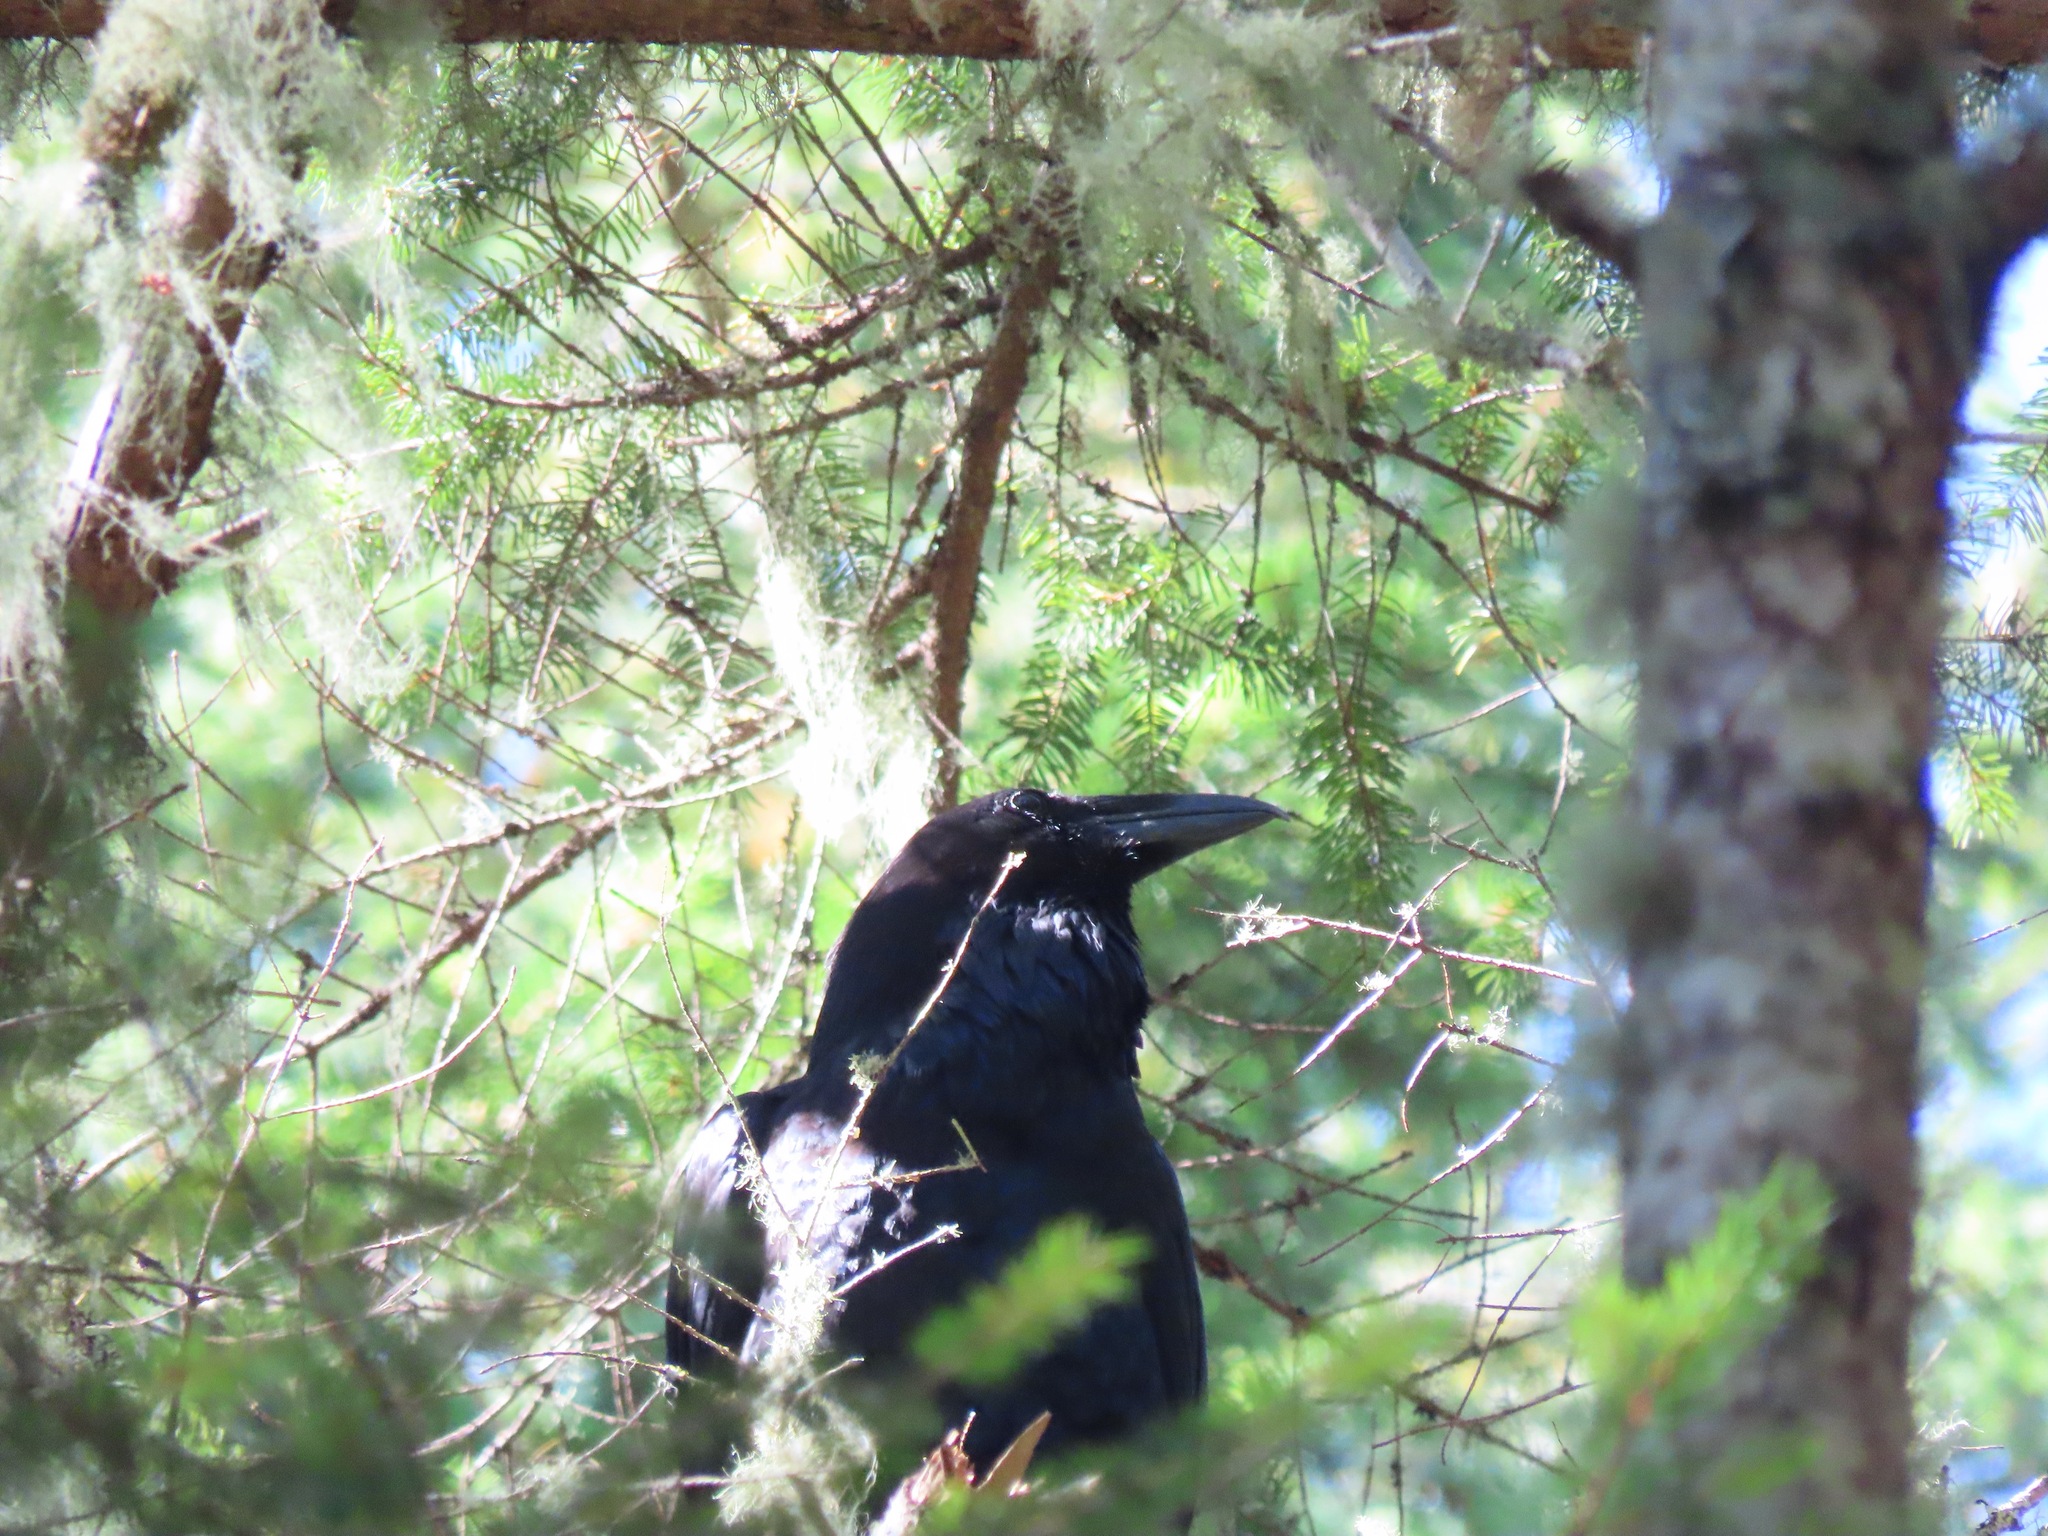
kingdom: Animalia
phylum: Chordata
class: Aves
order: Passeriformes
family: Corvidae
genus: Corvus
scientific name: Corvus corax
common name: Common raven
